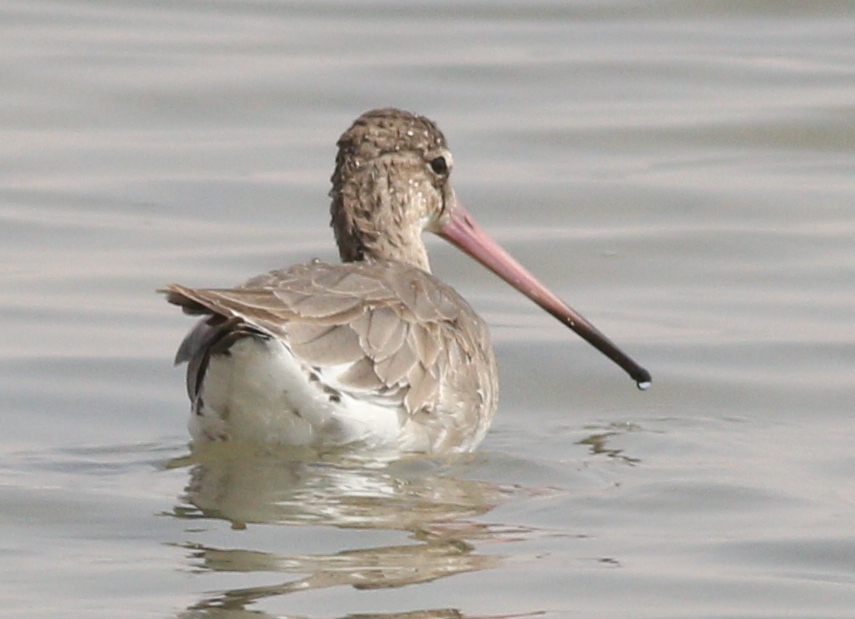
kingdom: Animalia
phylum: Chordata
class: Aves
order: Charadriiformes
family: Scolopacidae
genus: Limosa
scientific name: Limosa limosa
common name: Black-tailed godwit
